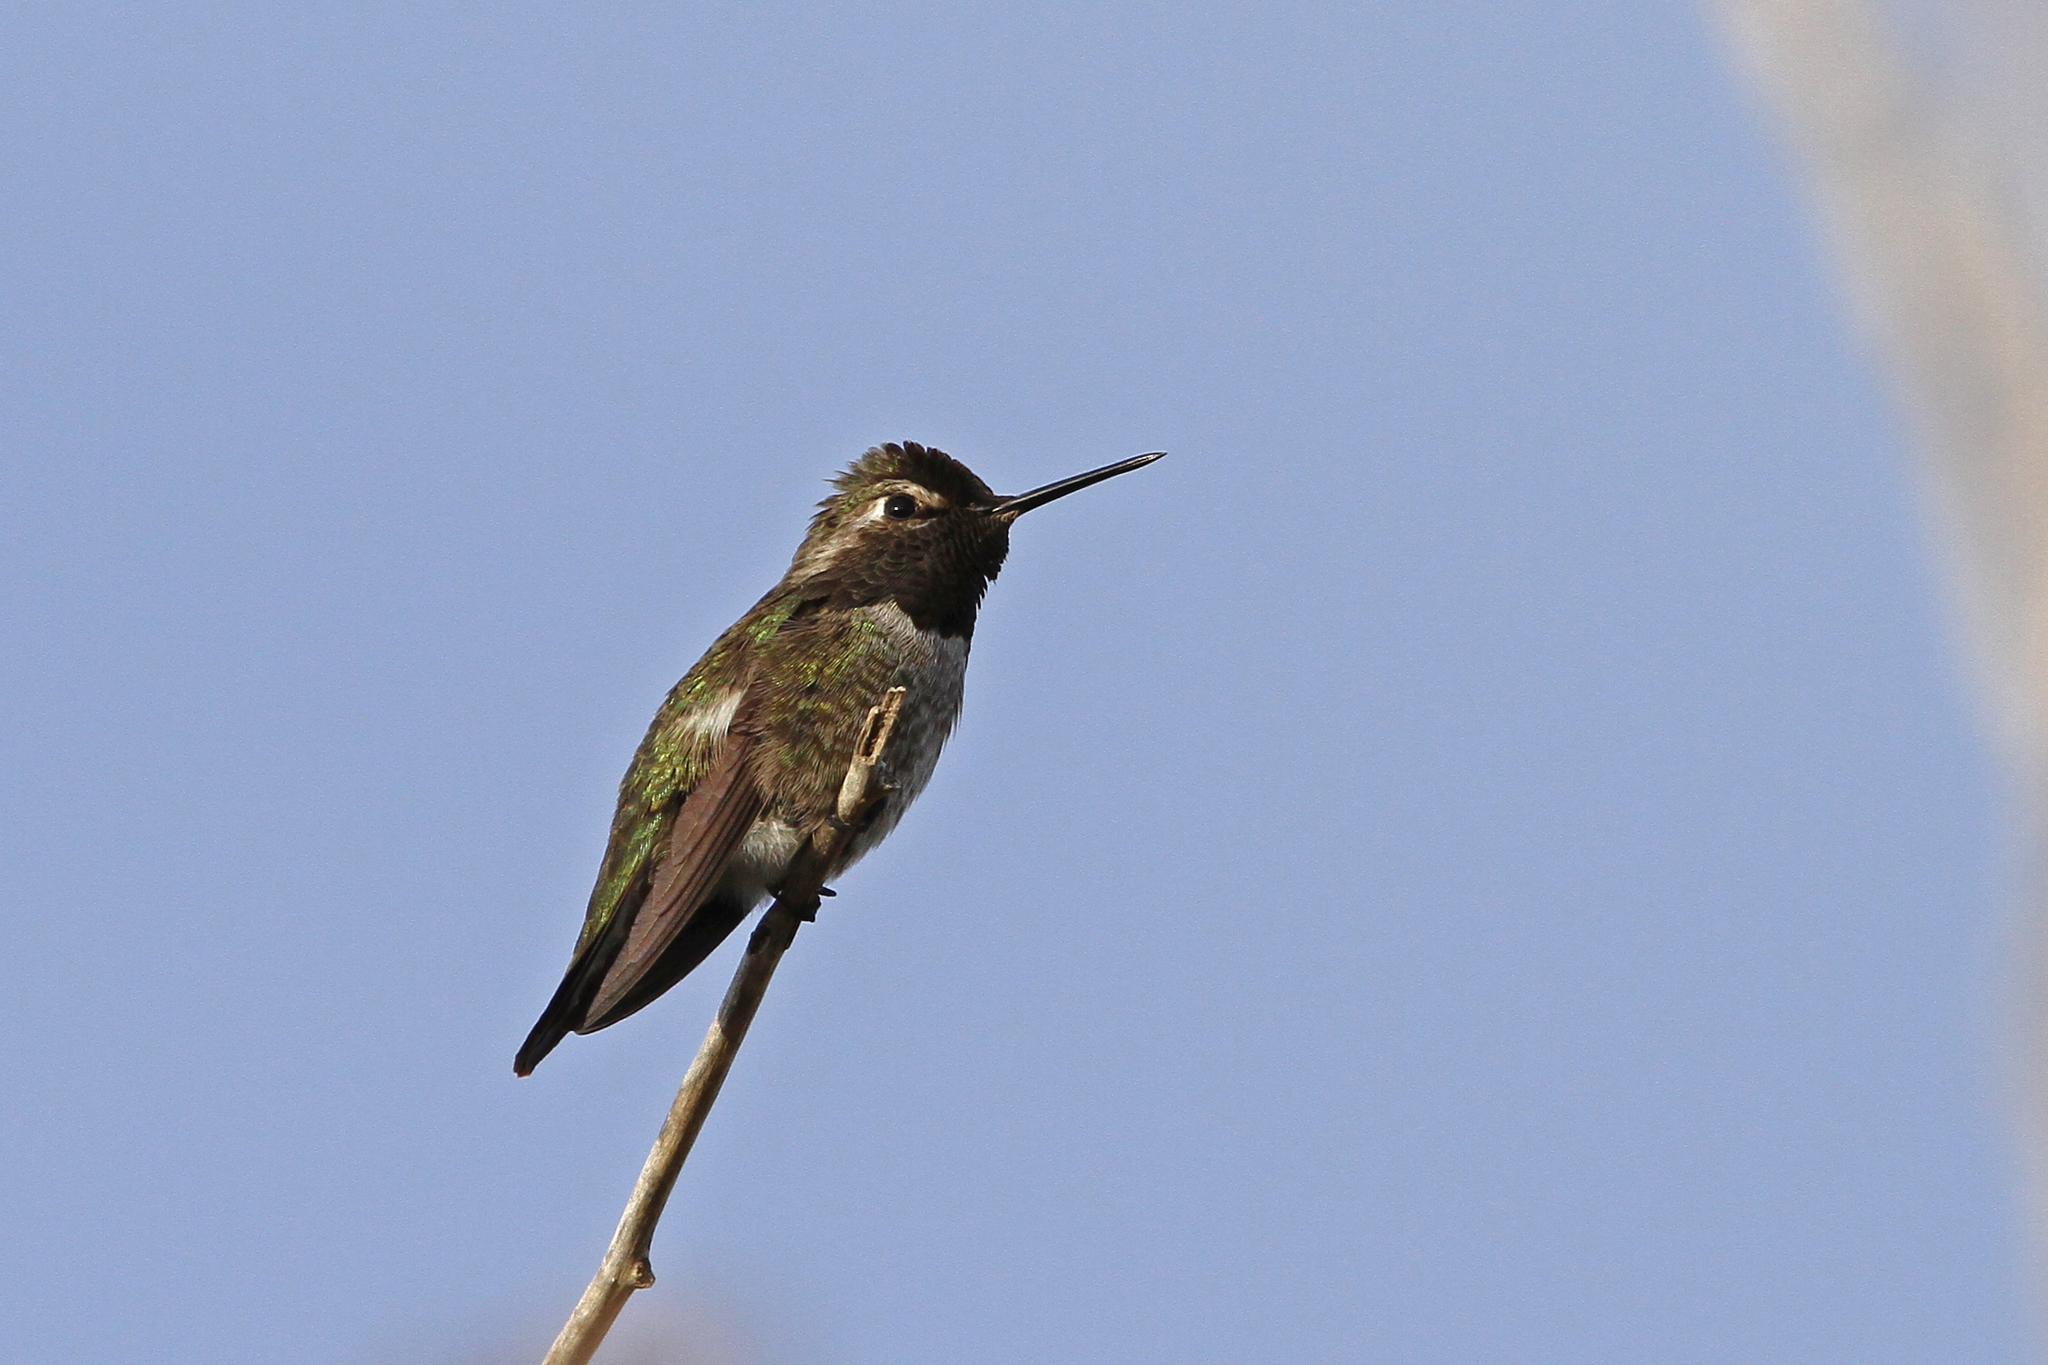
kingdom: Animalia
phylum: Chordata
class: Aves
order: Apodiformes
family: Trochilidae
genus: Calypte
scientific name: Calypte anna
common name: Anna's hummingbird
